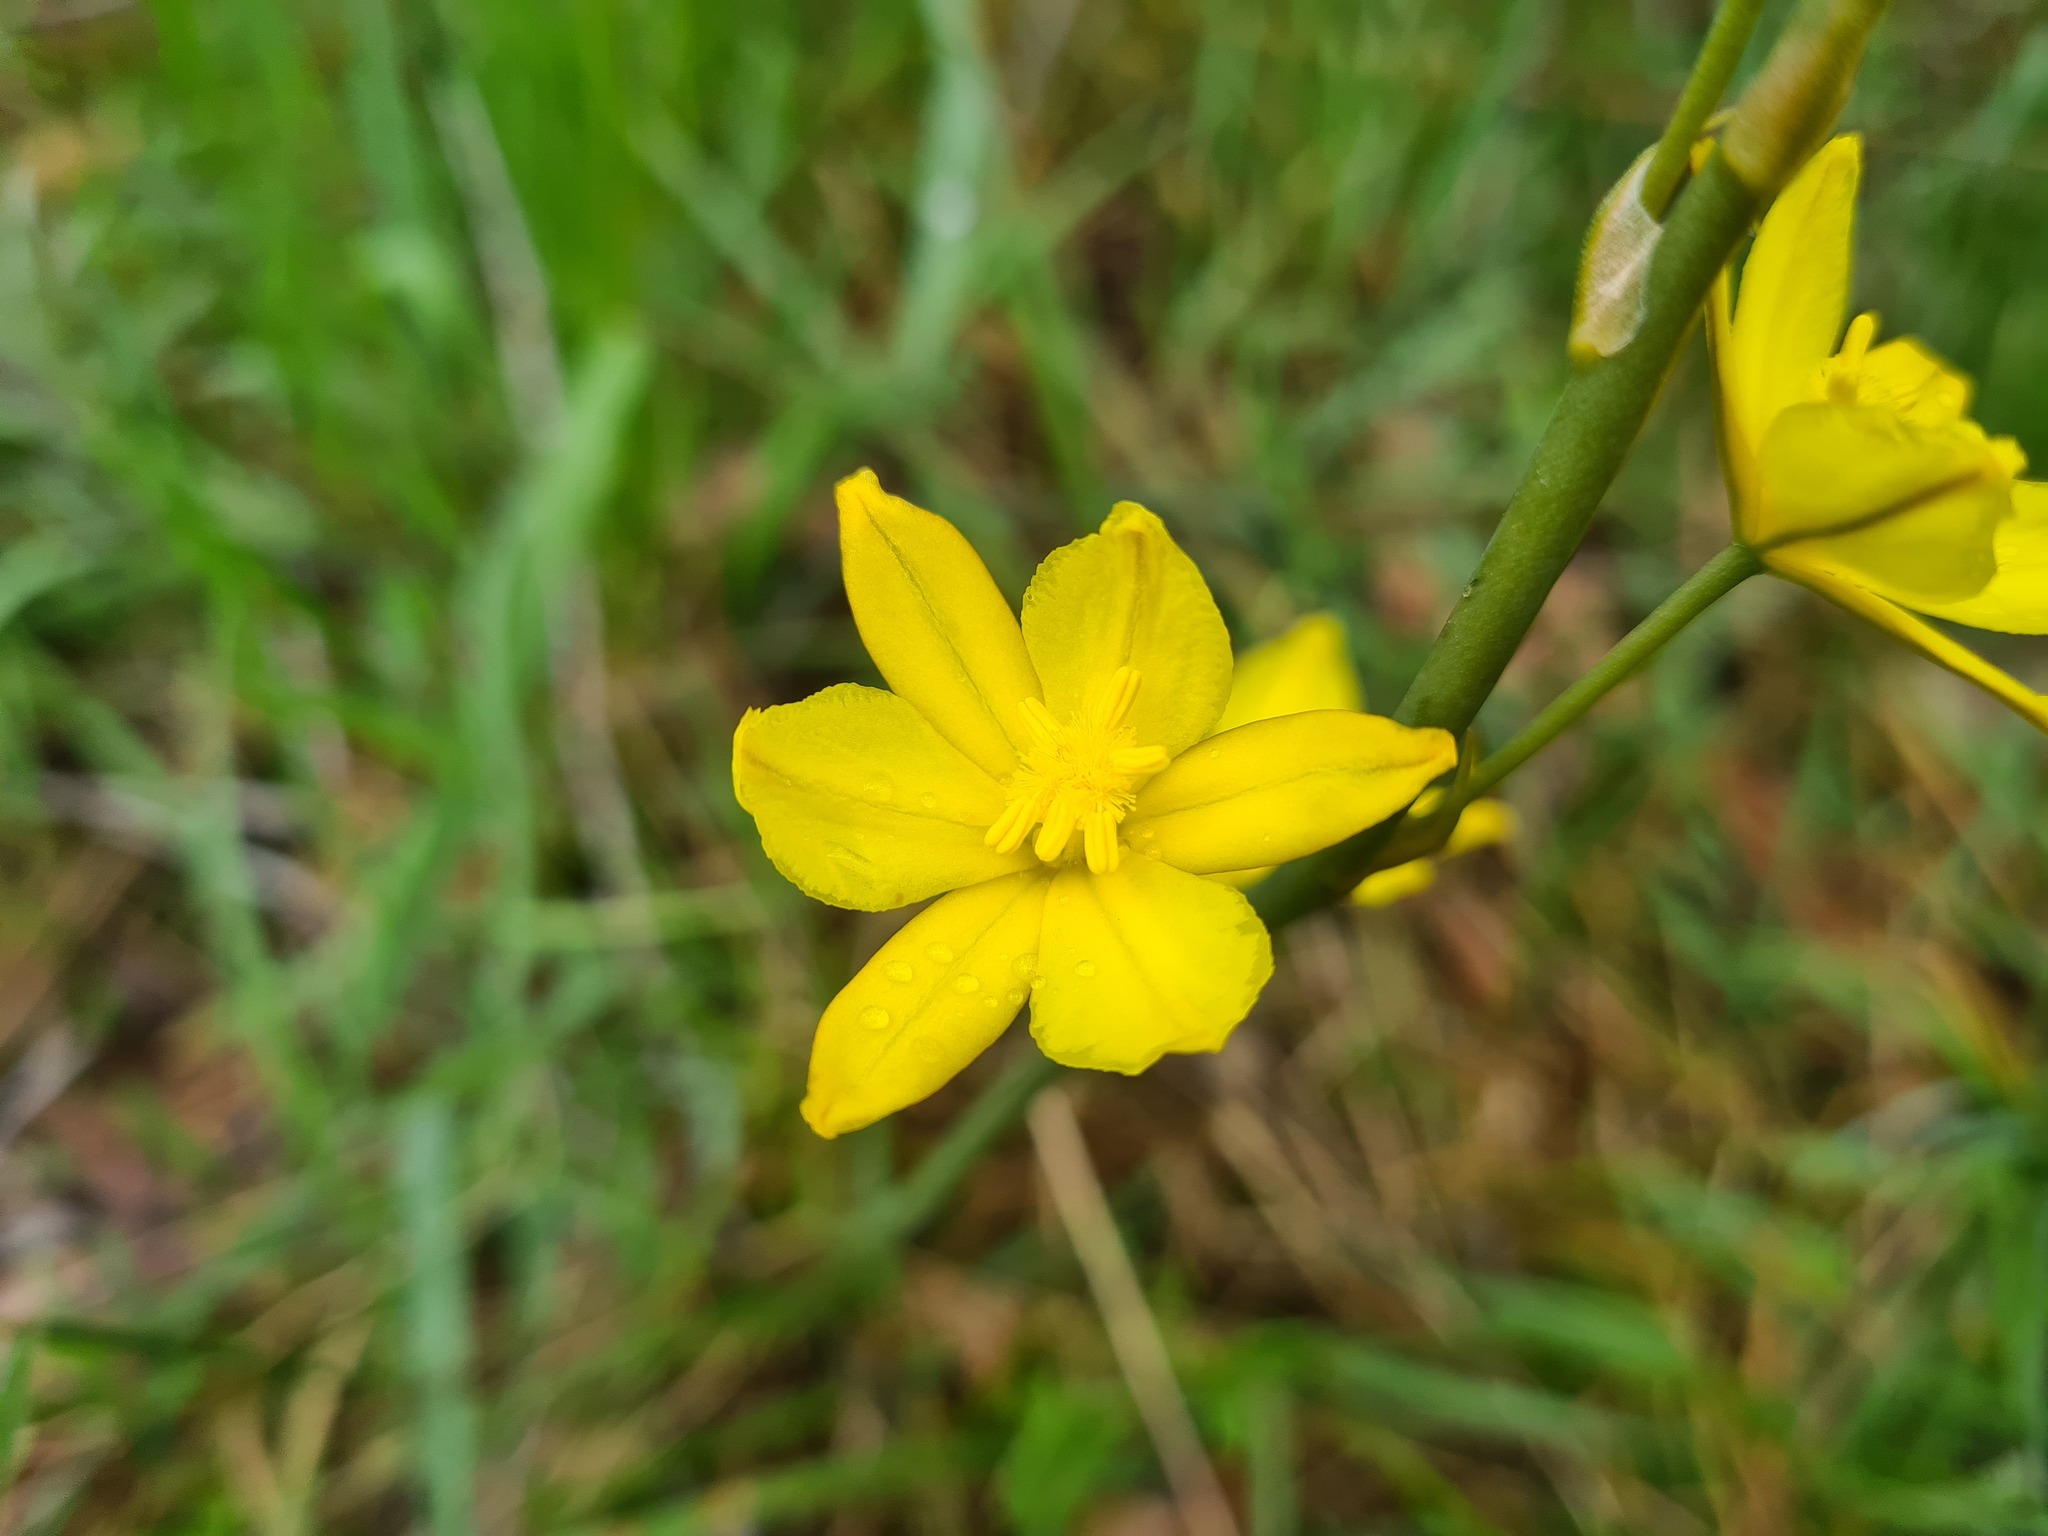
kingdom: Plantae
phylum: Tracheophyta
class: Liliopsida
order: Asparagales
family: Asphodelaceae
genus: Bulbine
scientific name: Bulbine bulbosa
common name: Golden-lily
